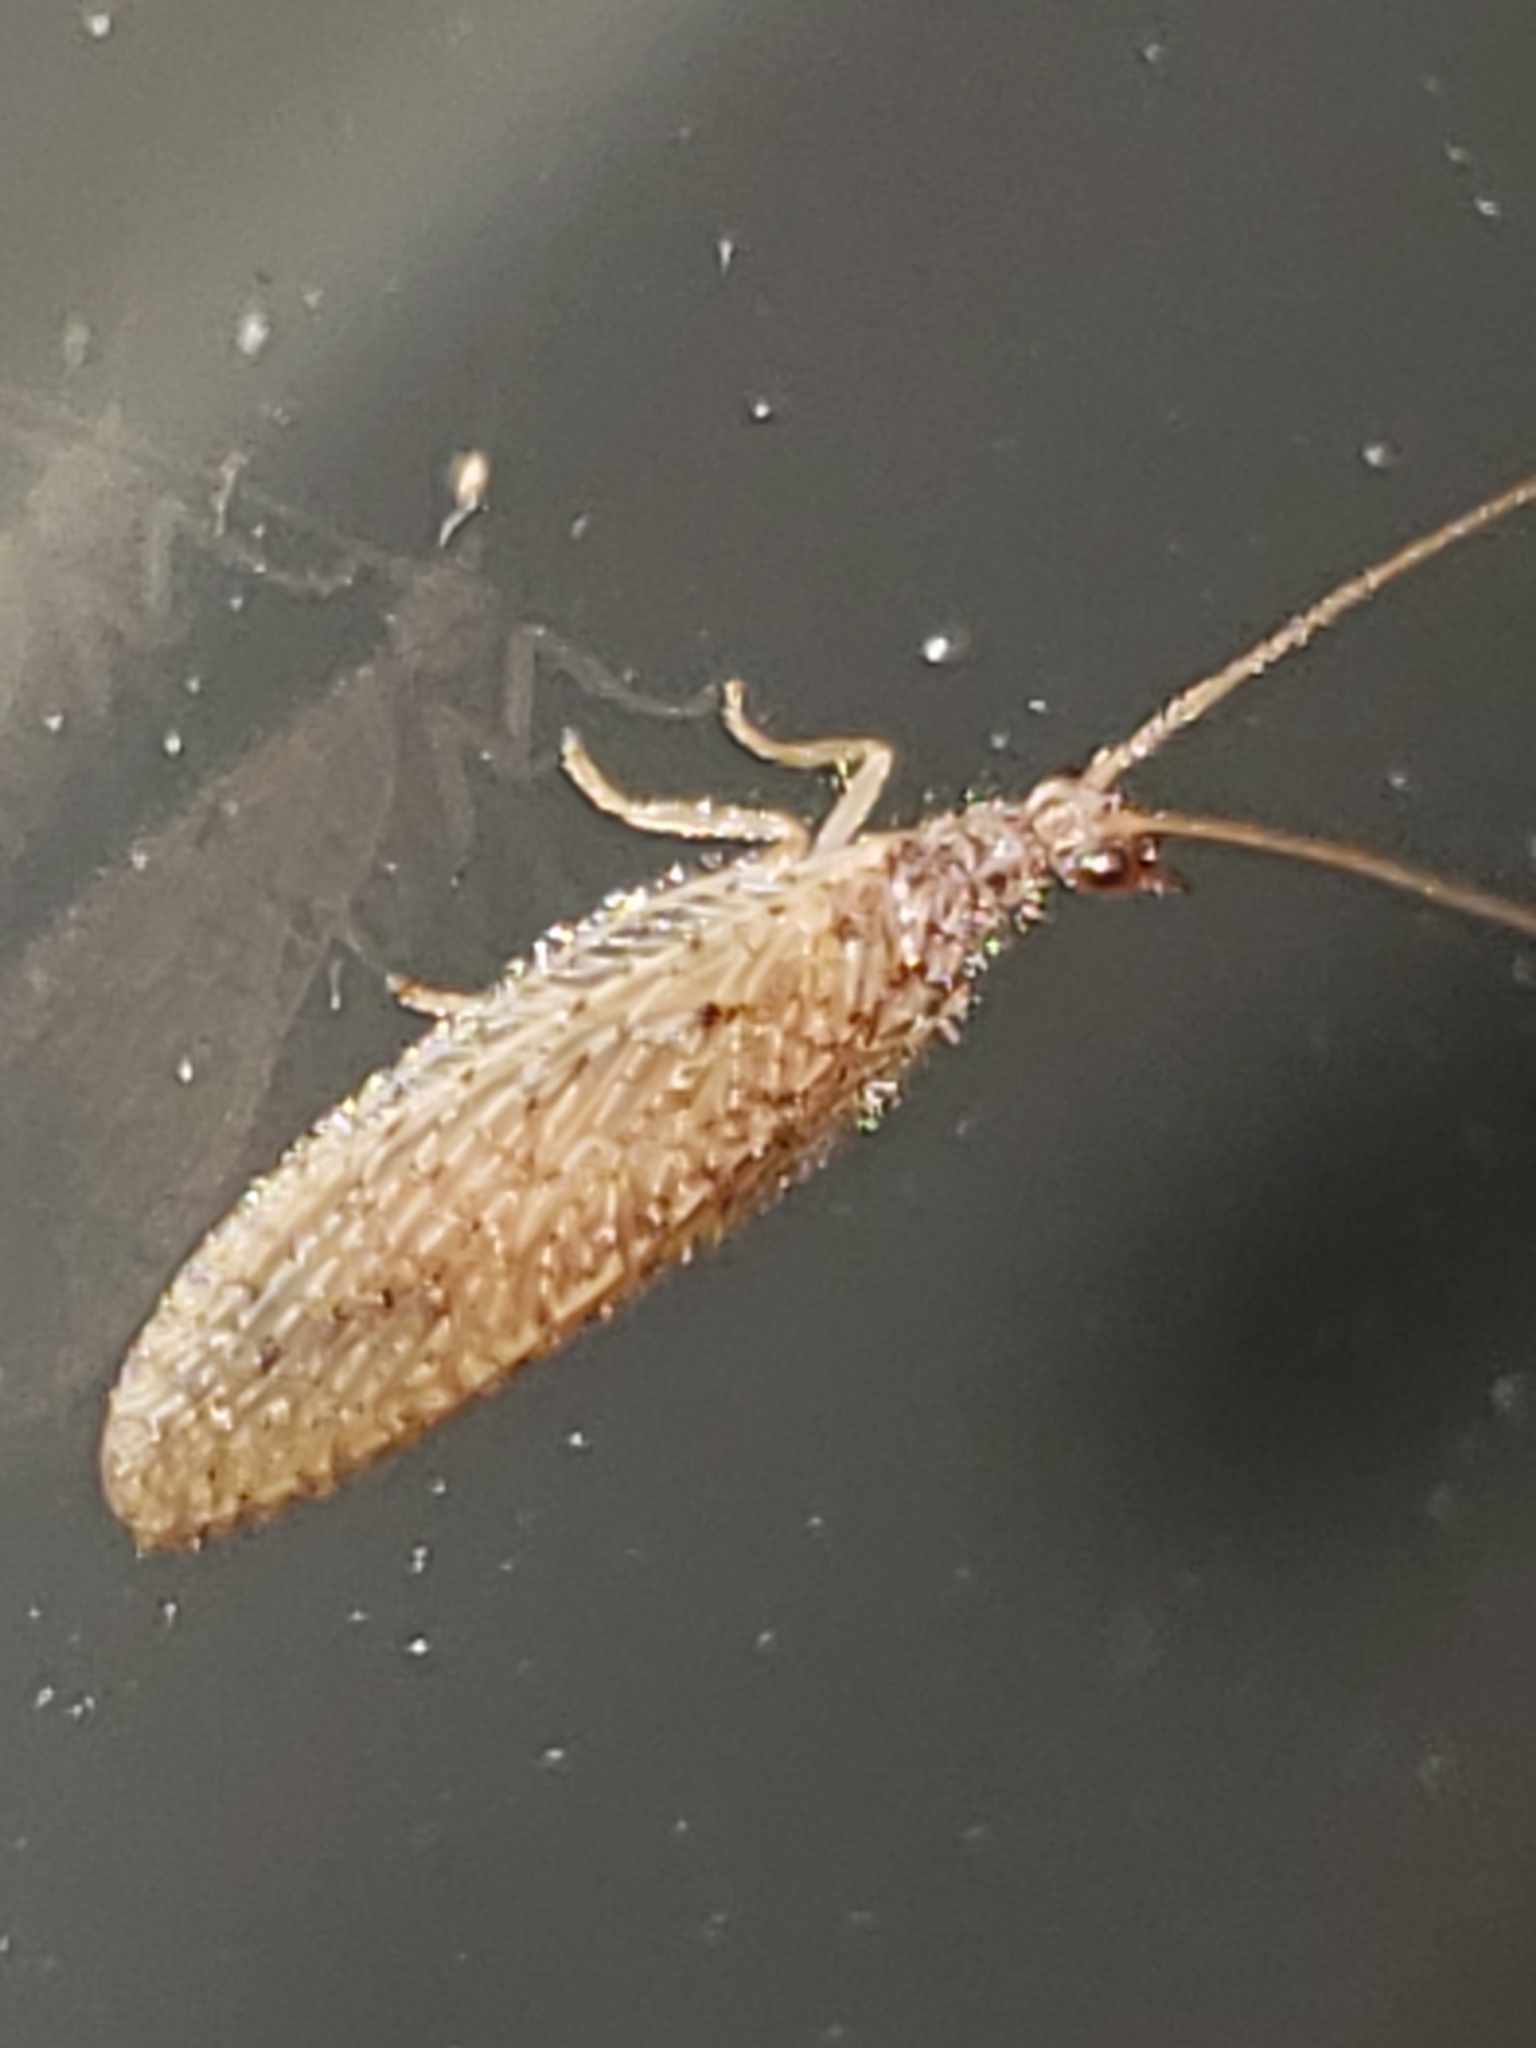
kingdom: Animalia
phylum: Arthropoda
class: Insecta
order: Neuroptera
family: Hemerobiidae
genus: Micromus
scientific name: Micromus subanticus
